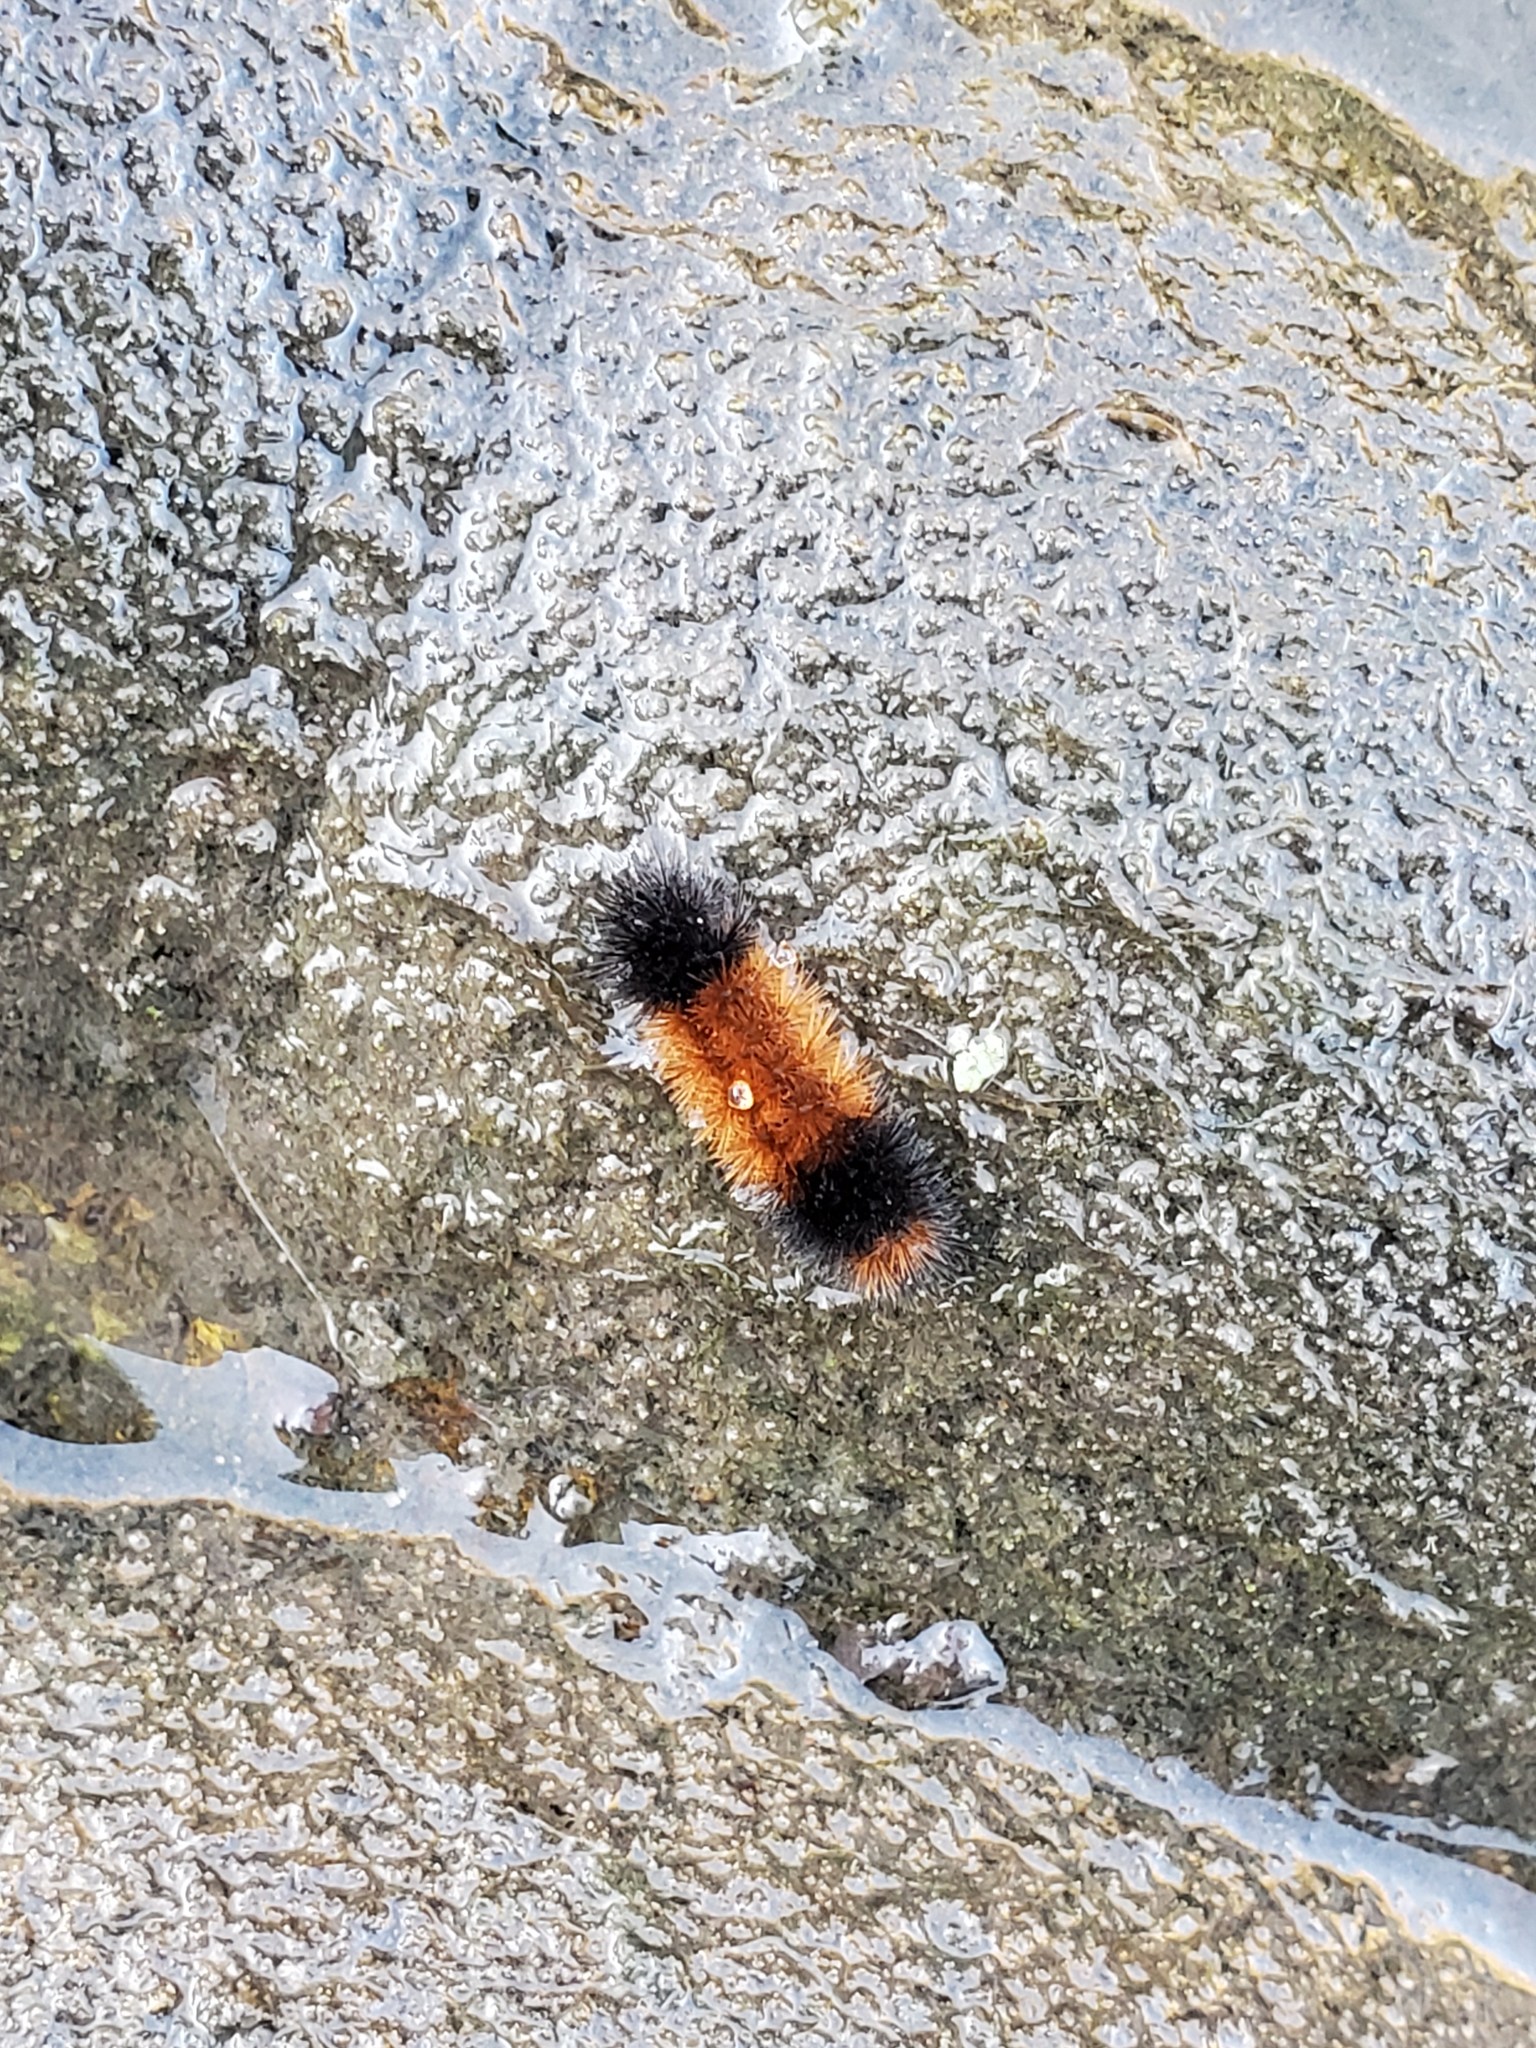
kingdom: Animalia
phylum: Arthropoda
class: Insecta
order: Lepidoptera
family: Erebidae
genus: Pyrrharctia
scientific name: Pyrrharctia isabella
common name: Isabella tiger moth
